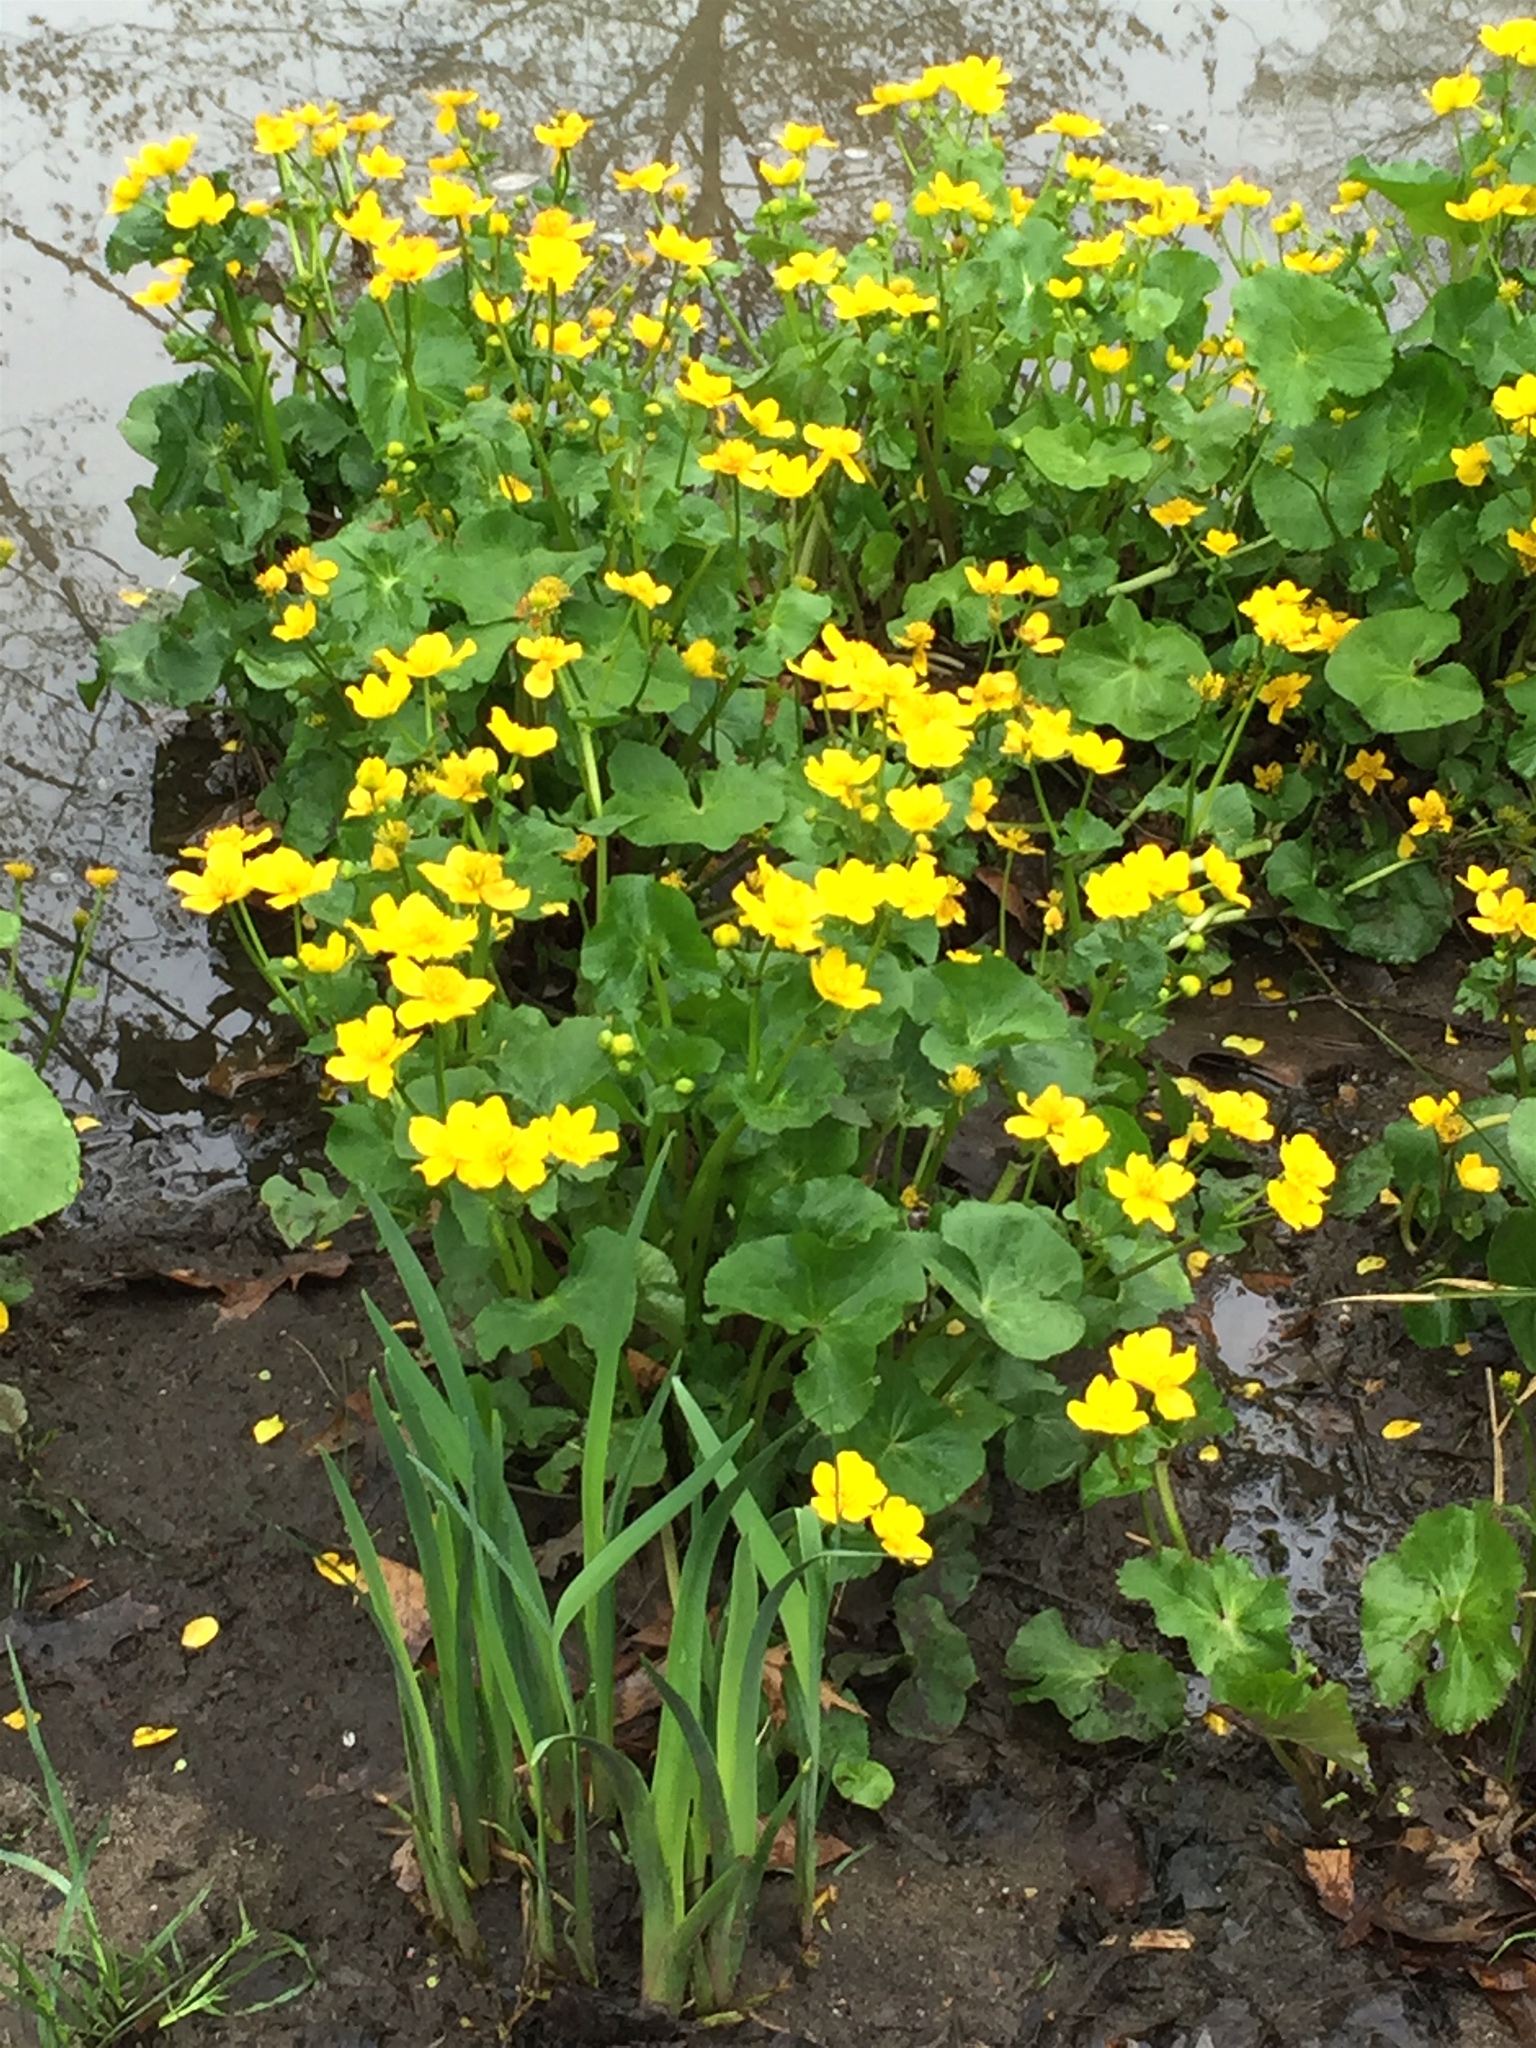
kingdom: Plantae
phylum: Tracheophyta
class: Magnoliopsida
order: Ranunculales
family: Ranunculaceae
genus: Caltha
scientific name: Caltha palustris
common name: Marsh marigold
